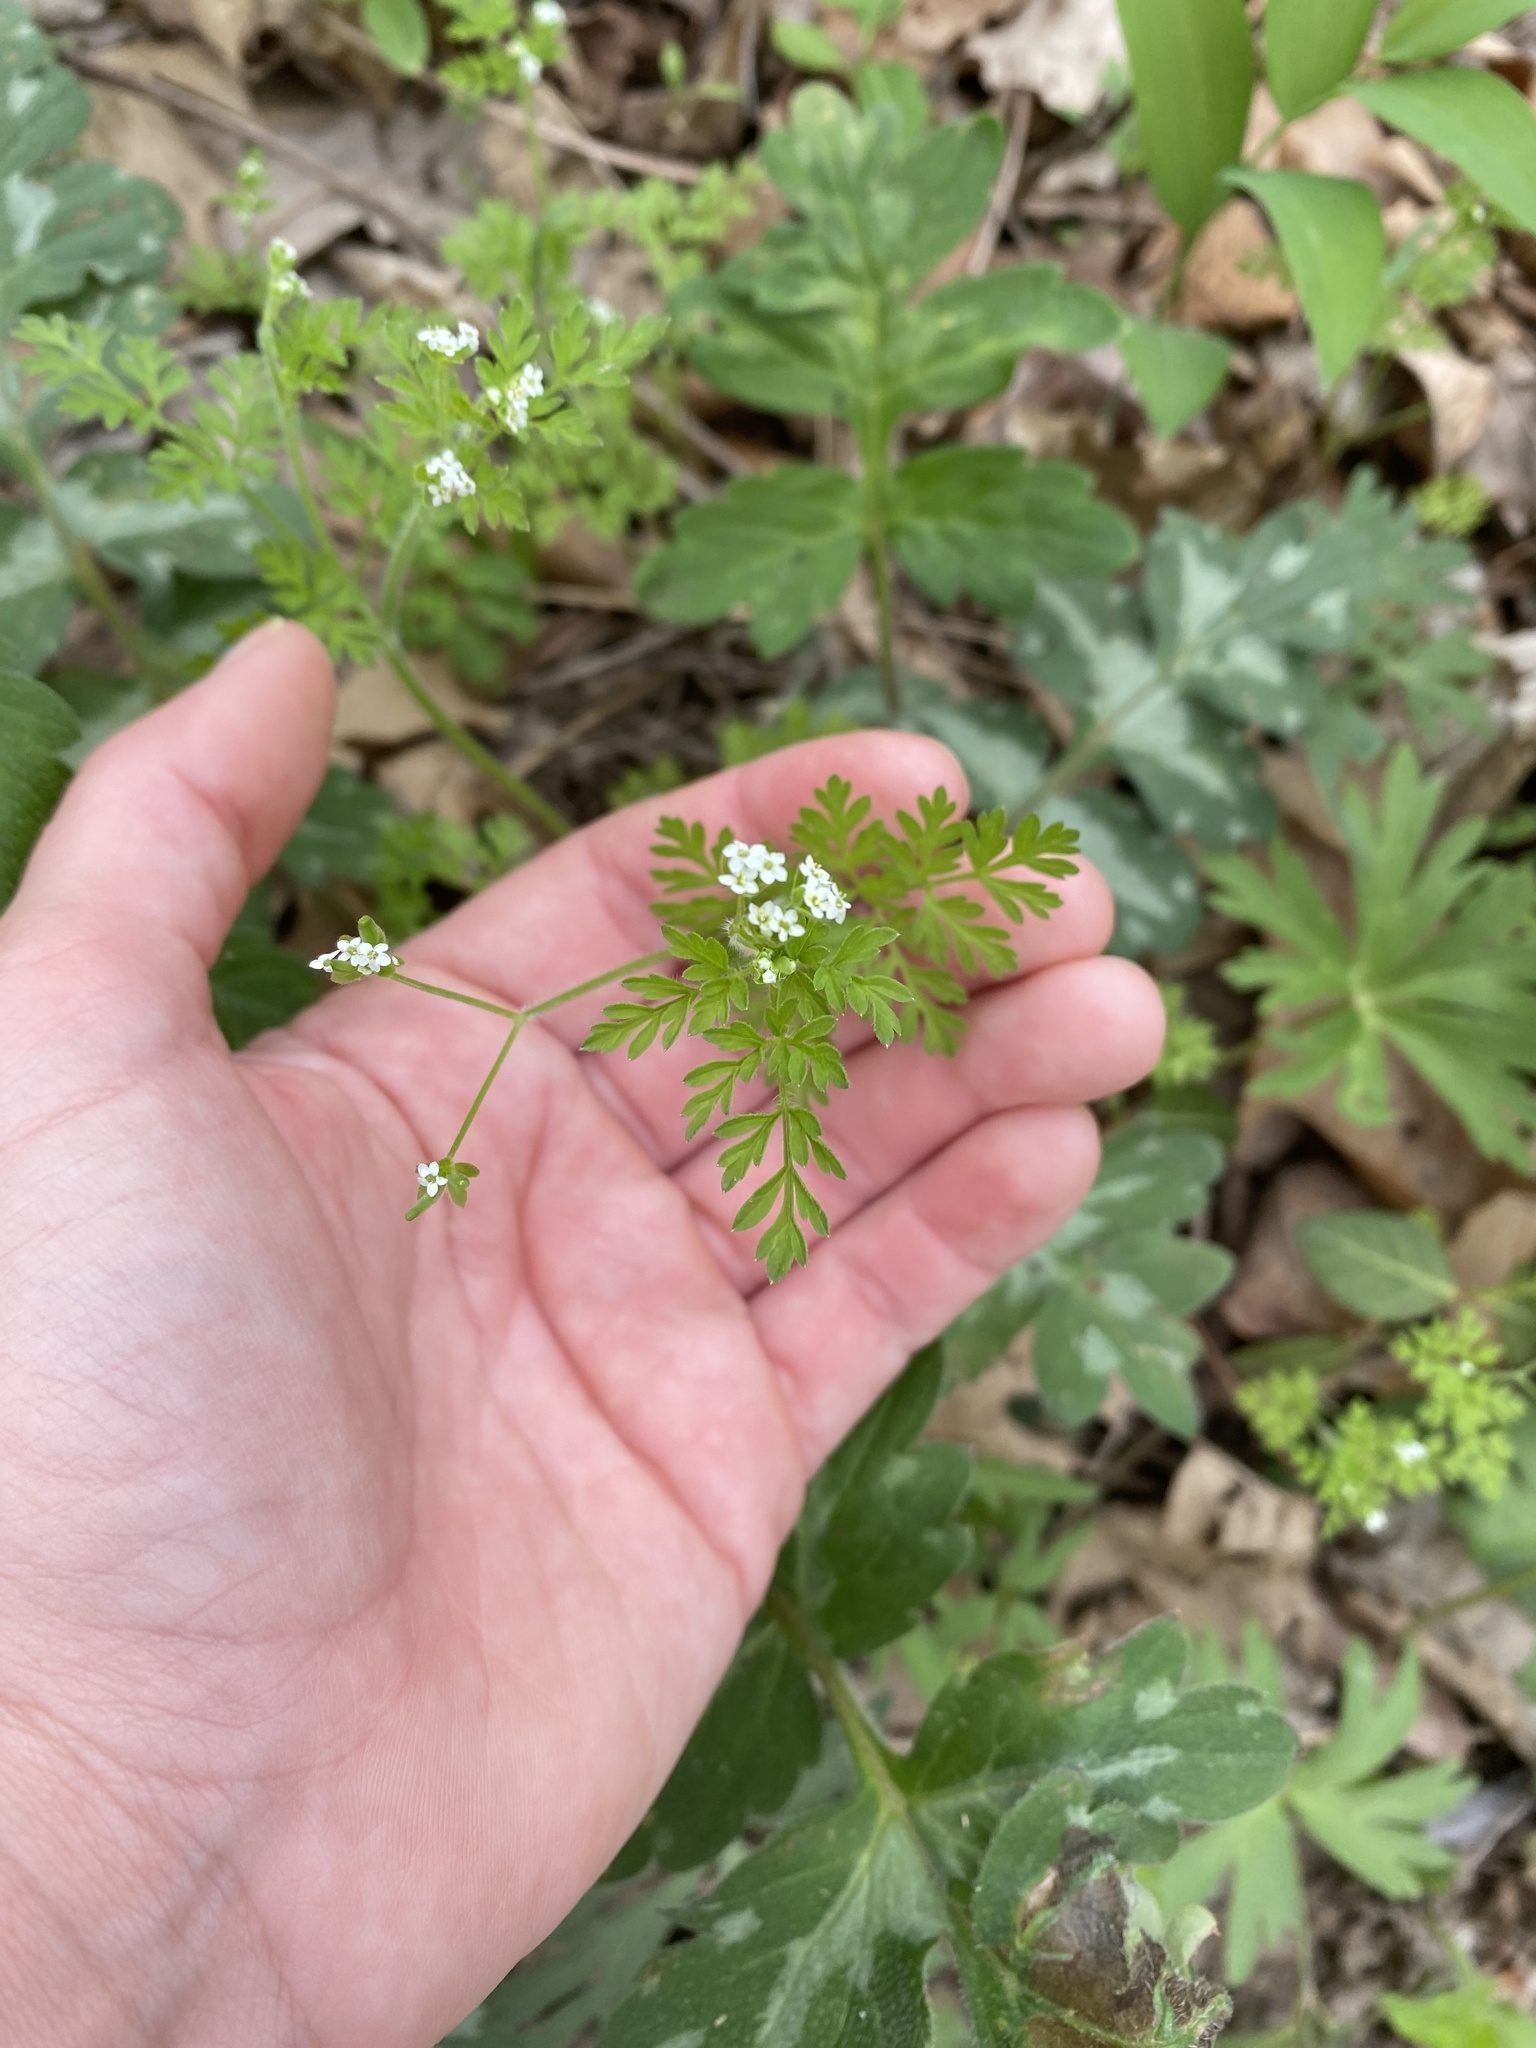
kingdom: Plantae
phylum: Tracheophyta
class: Magnoliopsida
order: Apiales
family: Apiaceae
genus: Chaerophyllum
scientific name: Chaerophyllum procumbens
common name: Spreading chervil
